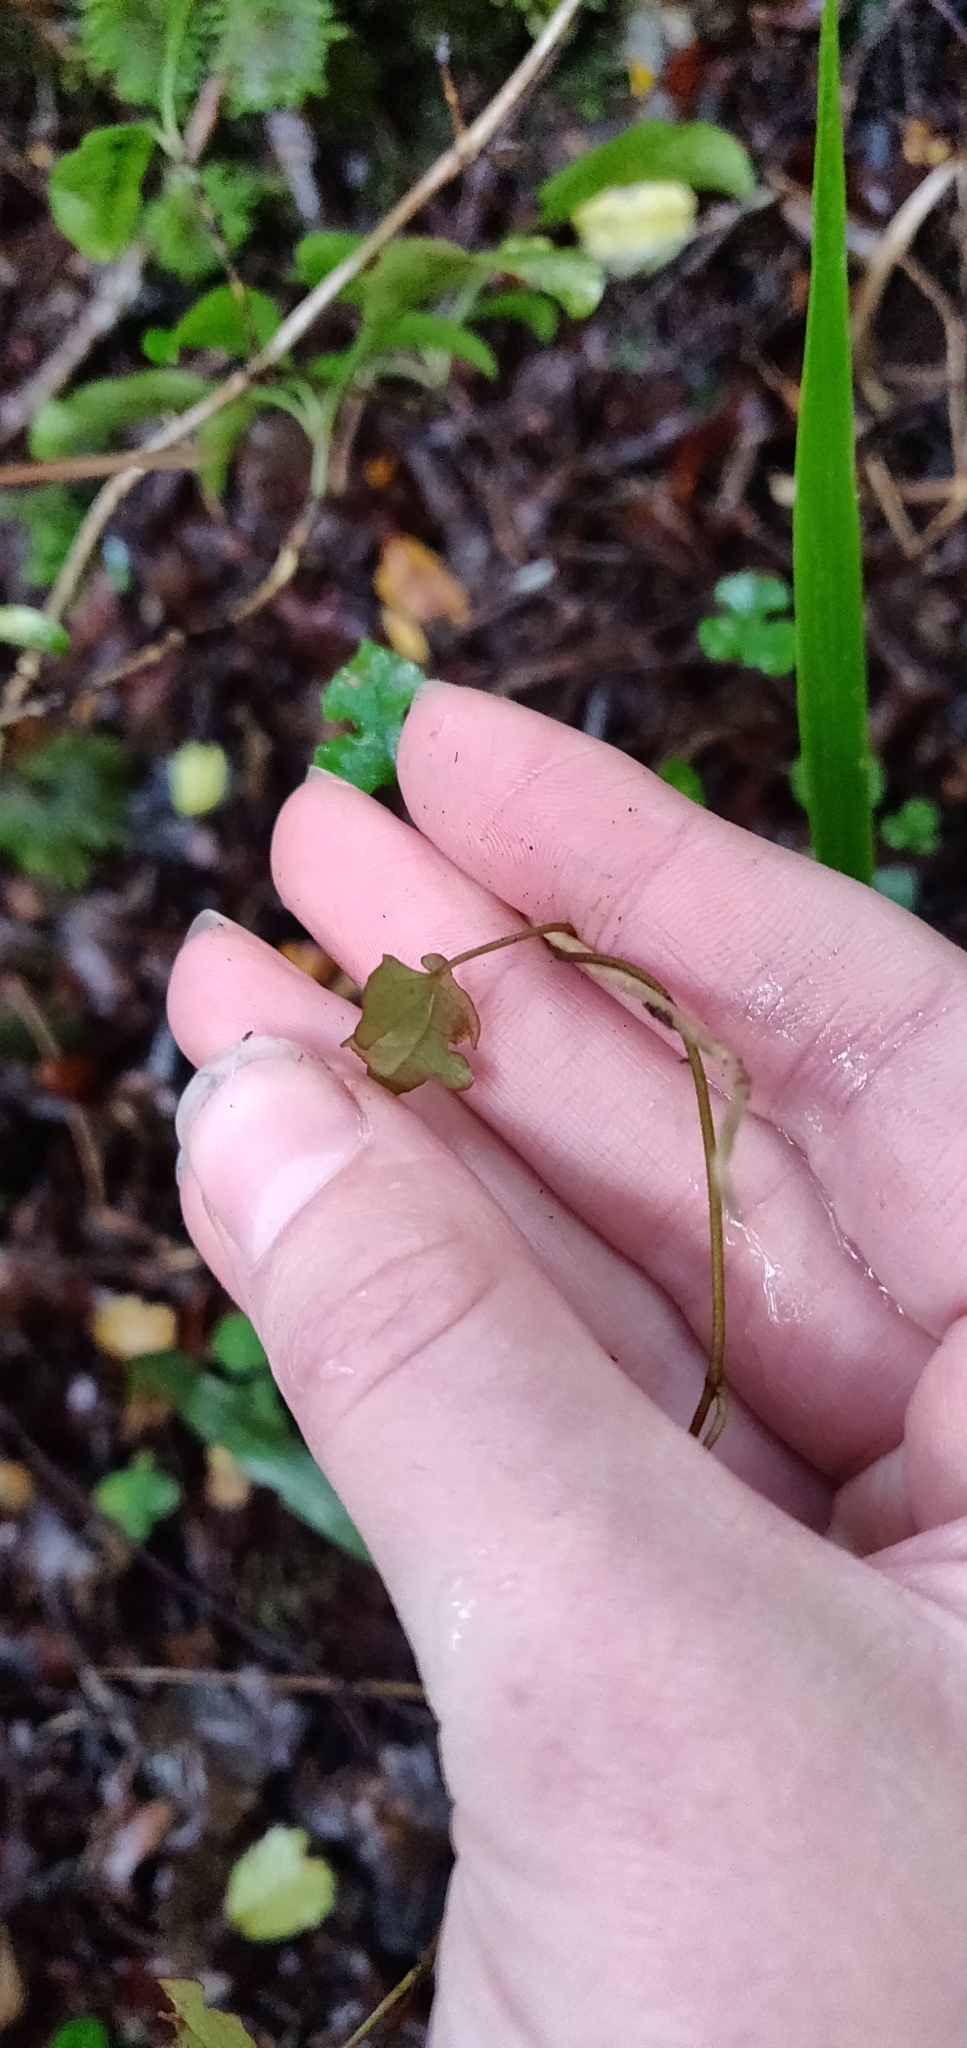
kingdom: Plantae
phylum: Tracheophyta
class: Magnoliopsida
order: Caryophyllales
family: Polygonaceae
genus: Muehlenbeckia
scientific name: Muehlenbeckia australis
